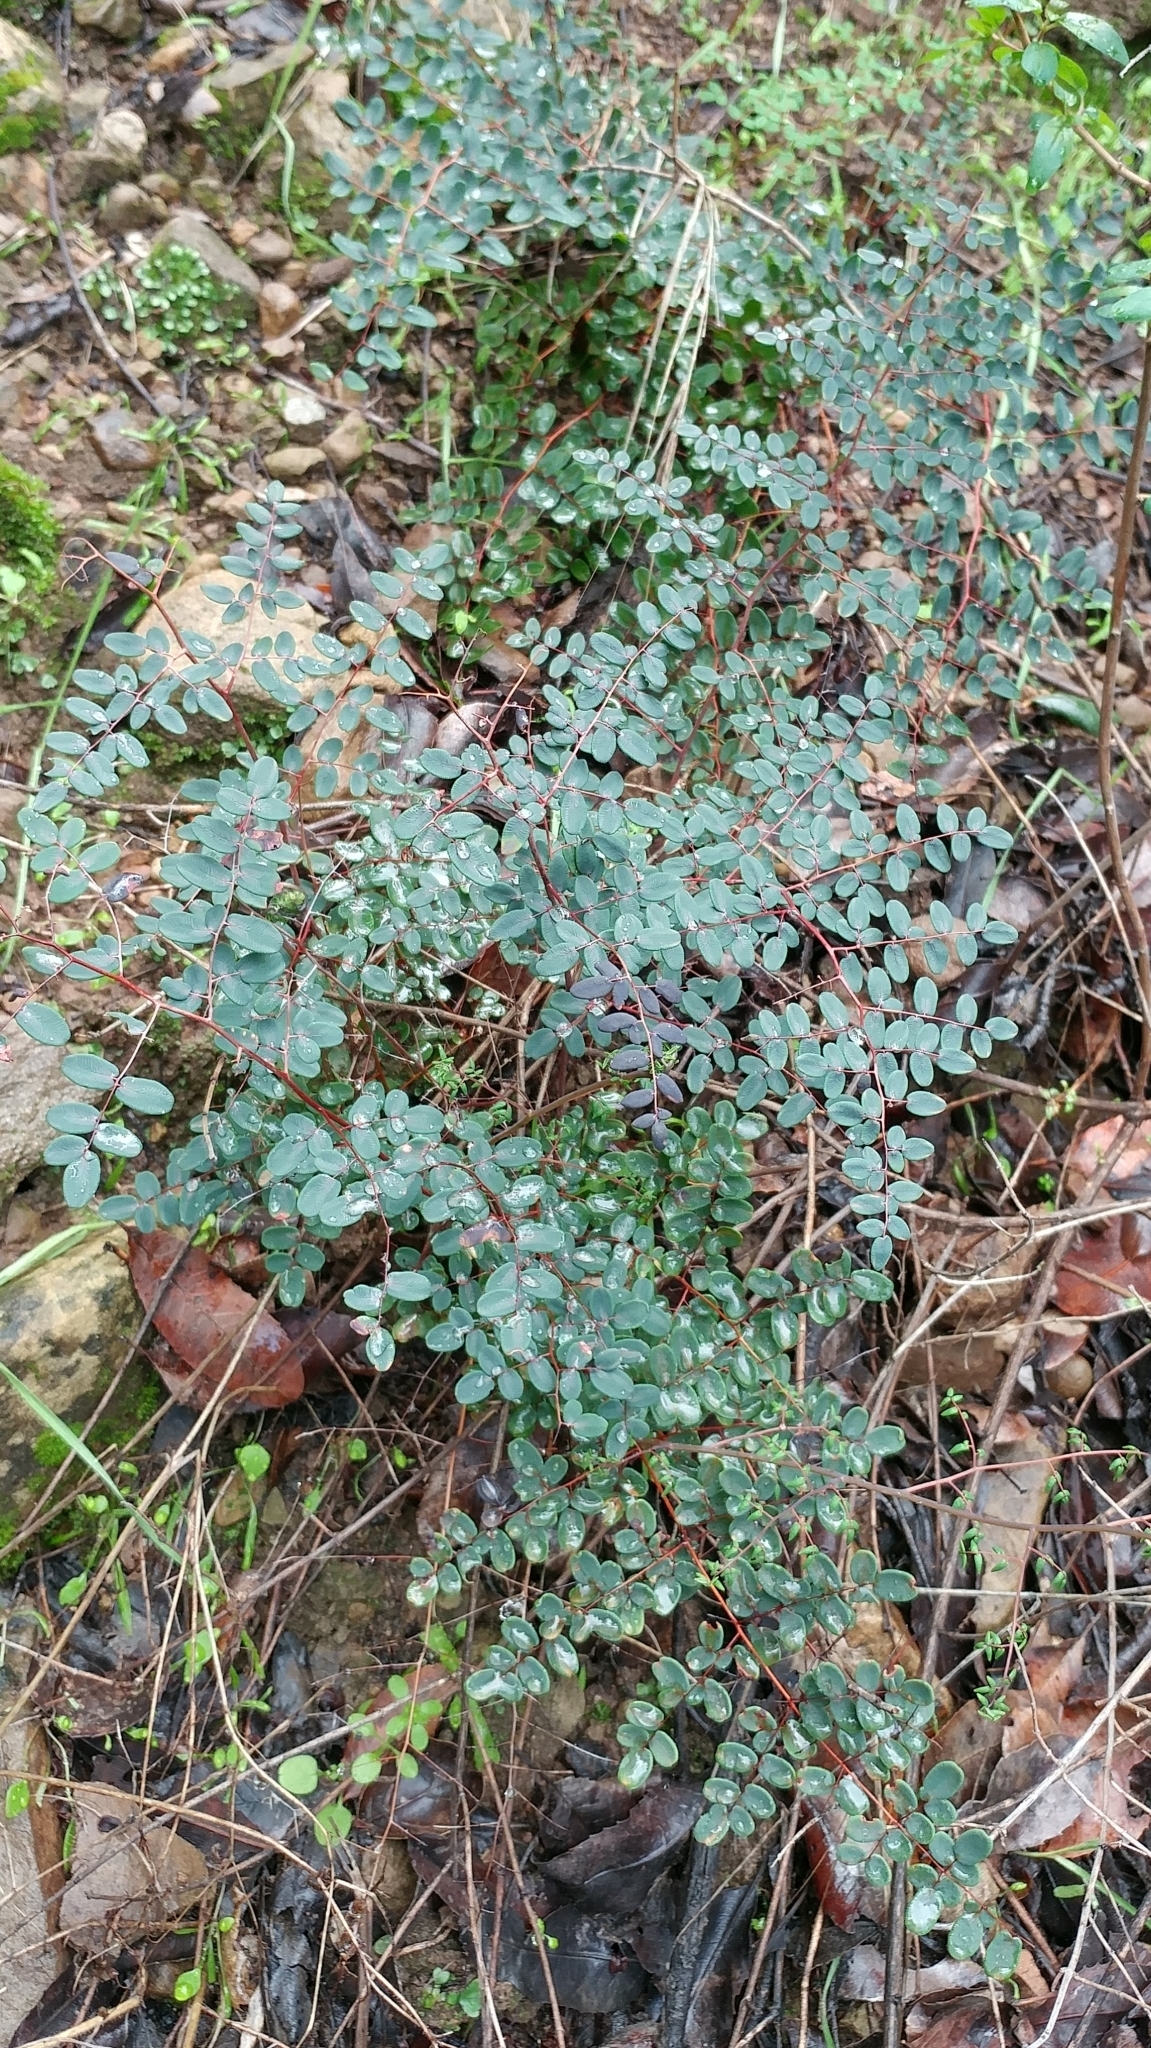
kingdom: Plantae
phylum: Tracheophyta
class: Polypodiopsida
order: Polypodiales
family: Pteridaceae
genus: Pellaea
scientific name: Pellaea andromedifolia
